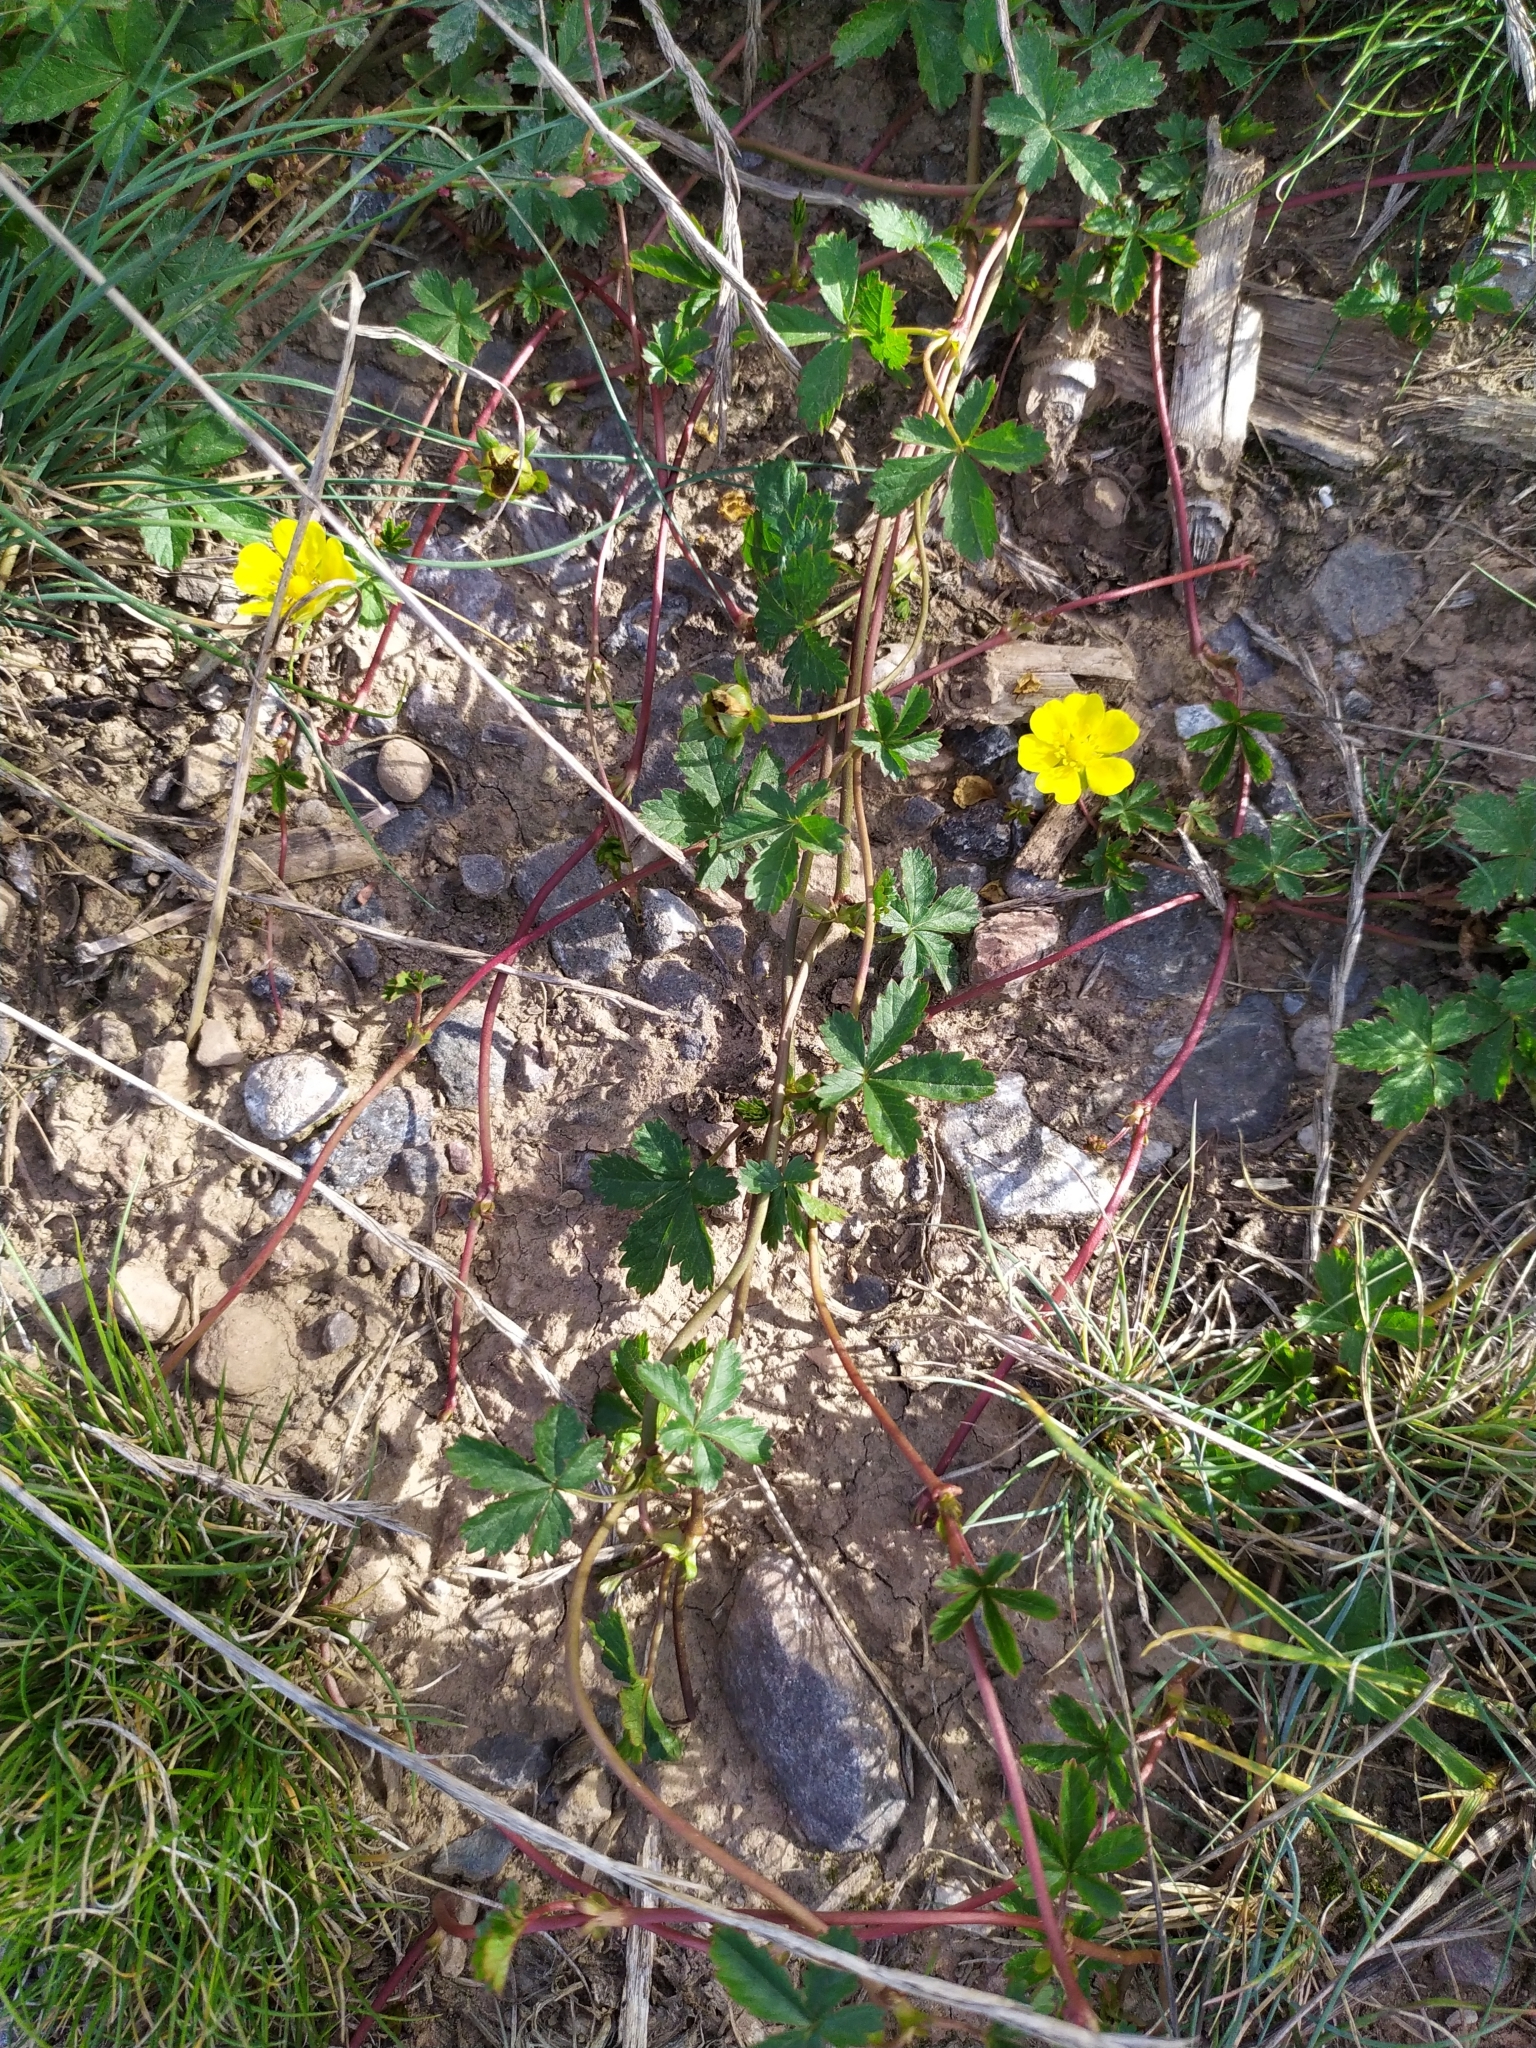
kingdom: Plantae
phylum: Tracheophyta
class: Magnoliopsida
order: Rosales
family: Rosaceae
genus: Potentilla
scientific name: Potentilla reptans
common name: Creeping cinquefoil
